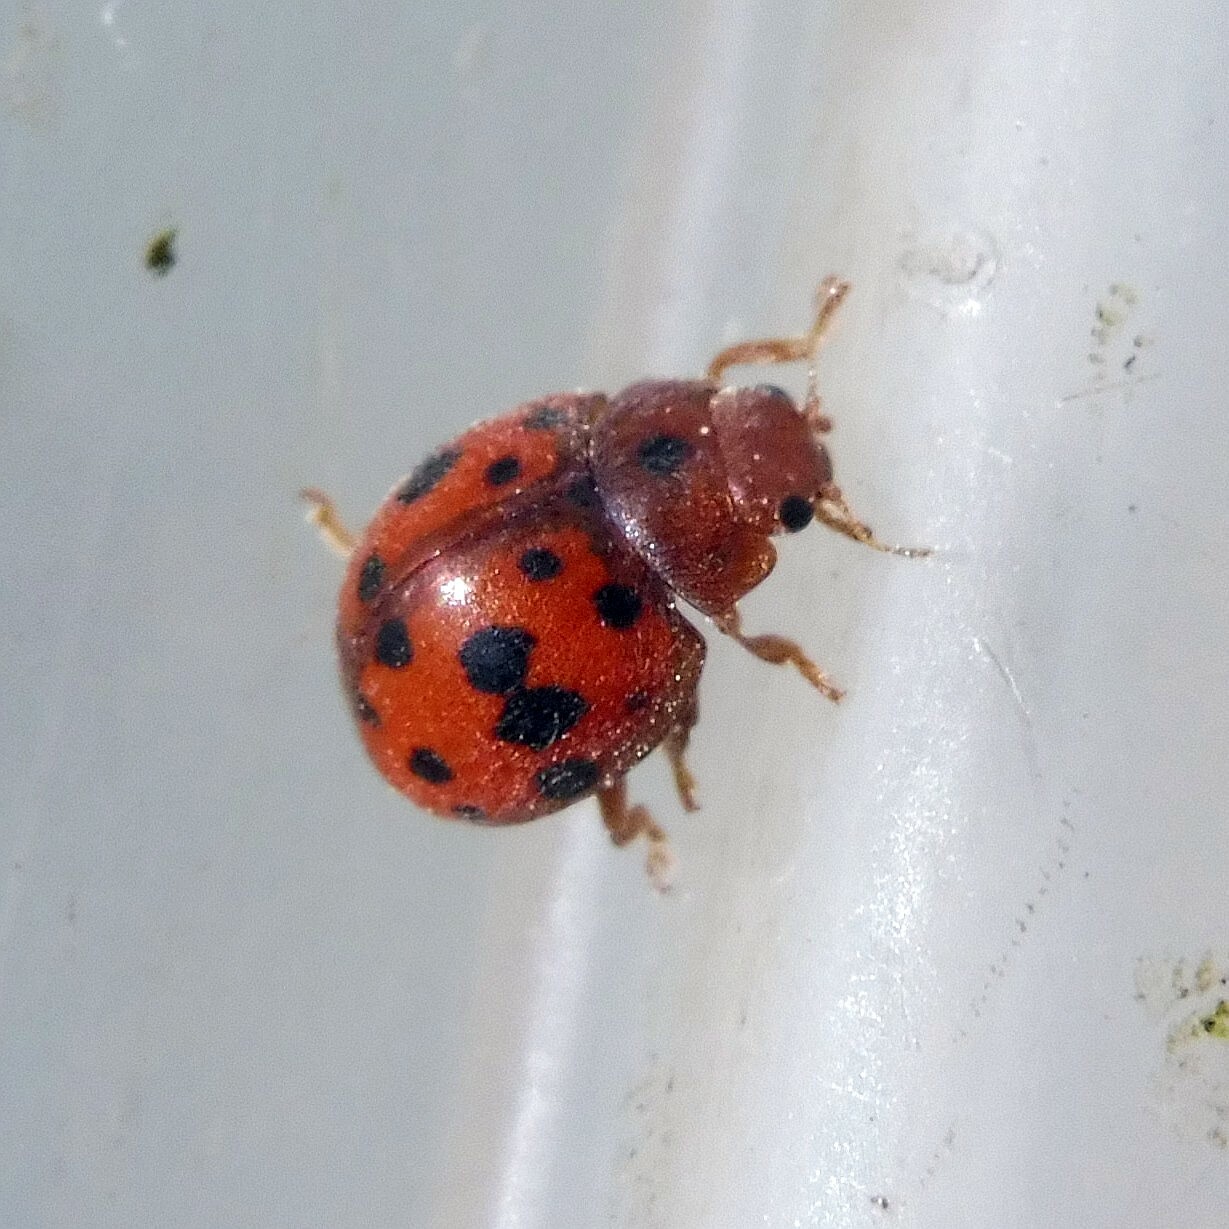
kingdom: Animalia
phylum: Arthropoda
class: Insecta
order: Coleoptera
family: Coccinellidae
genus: Subcoccinella
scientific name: Subcoccinella vigintiquatuorpunctata
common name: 24-spot ladybird
